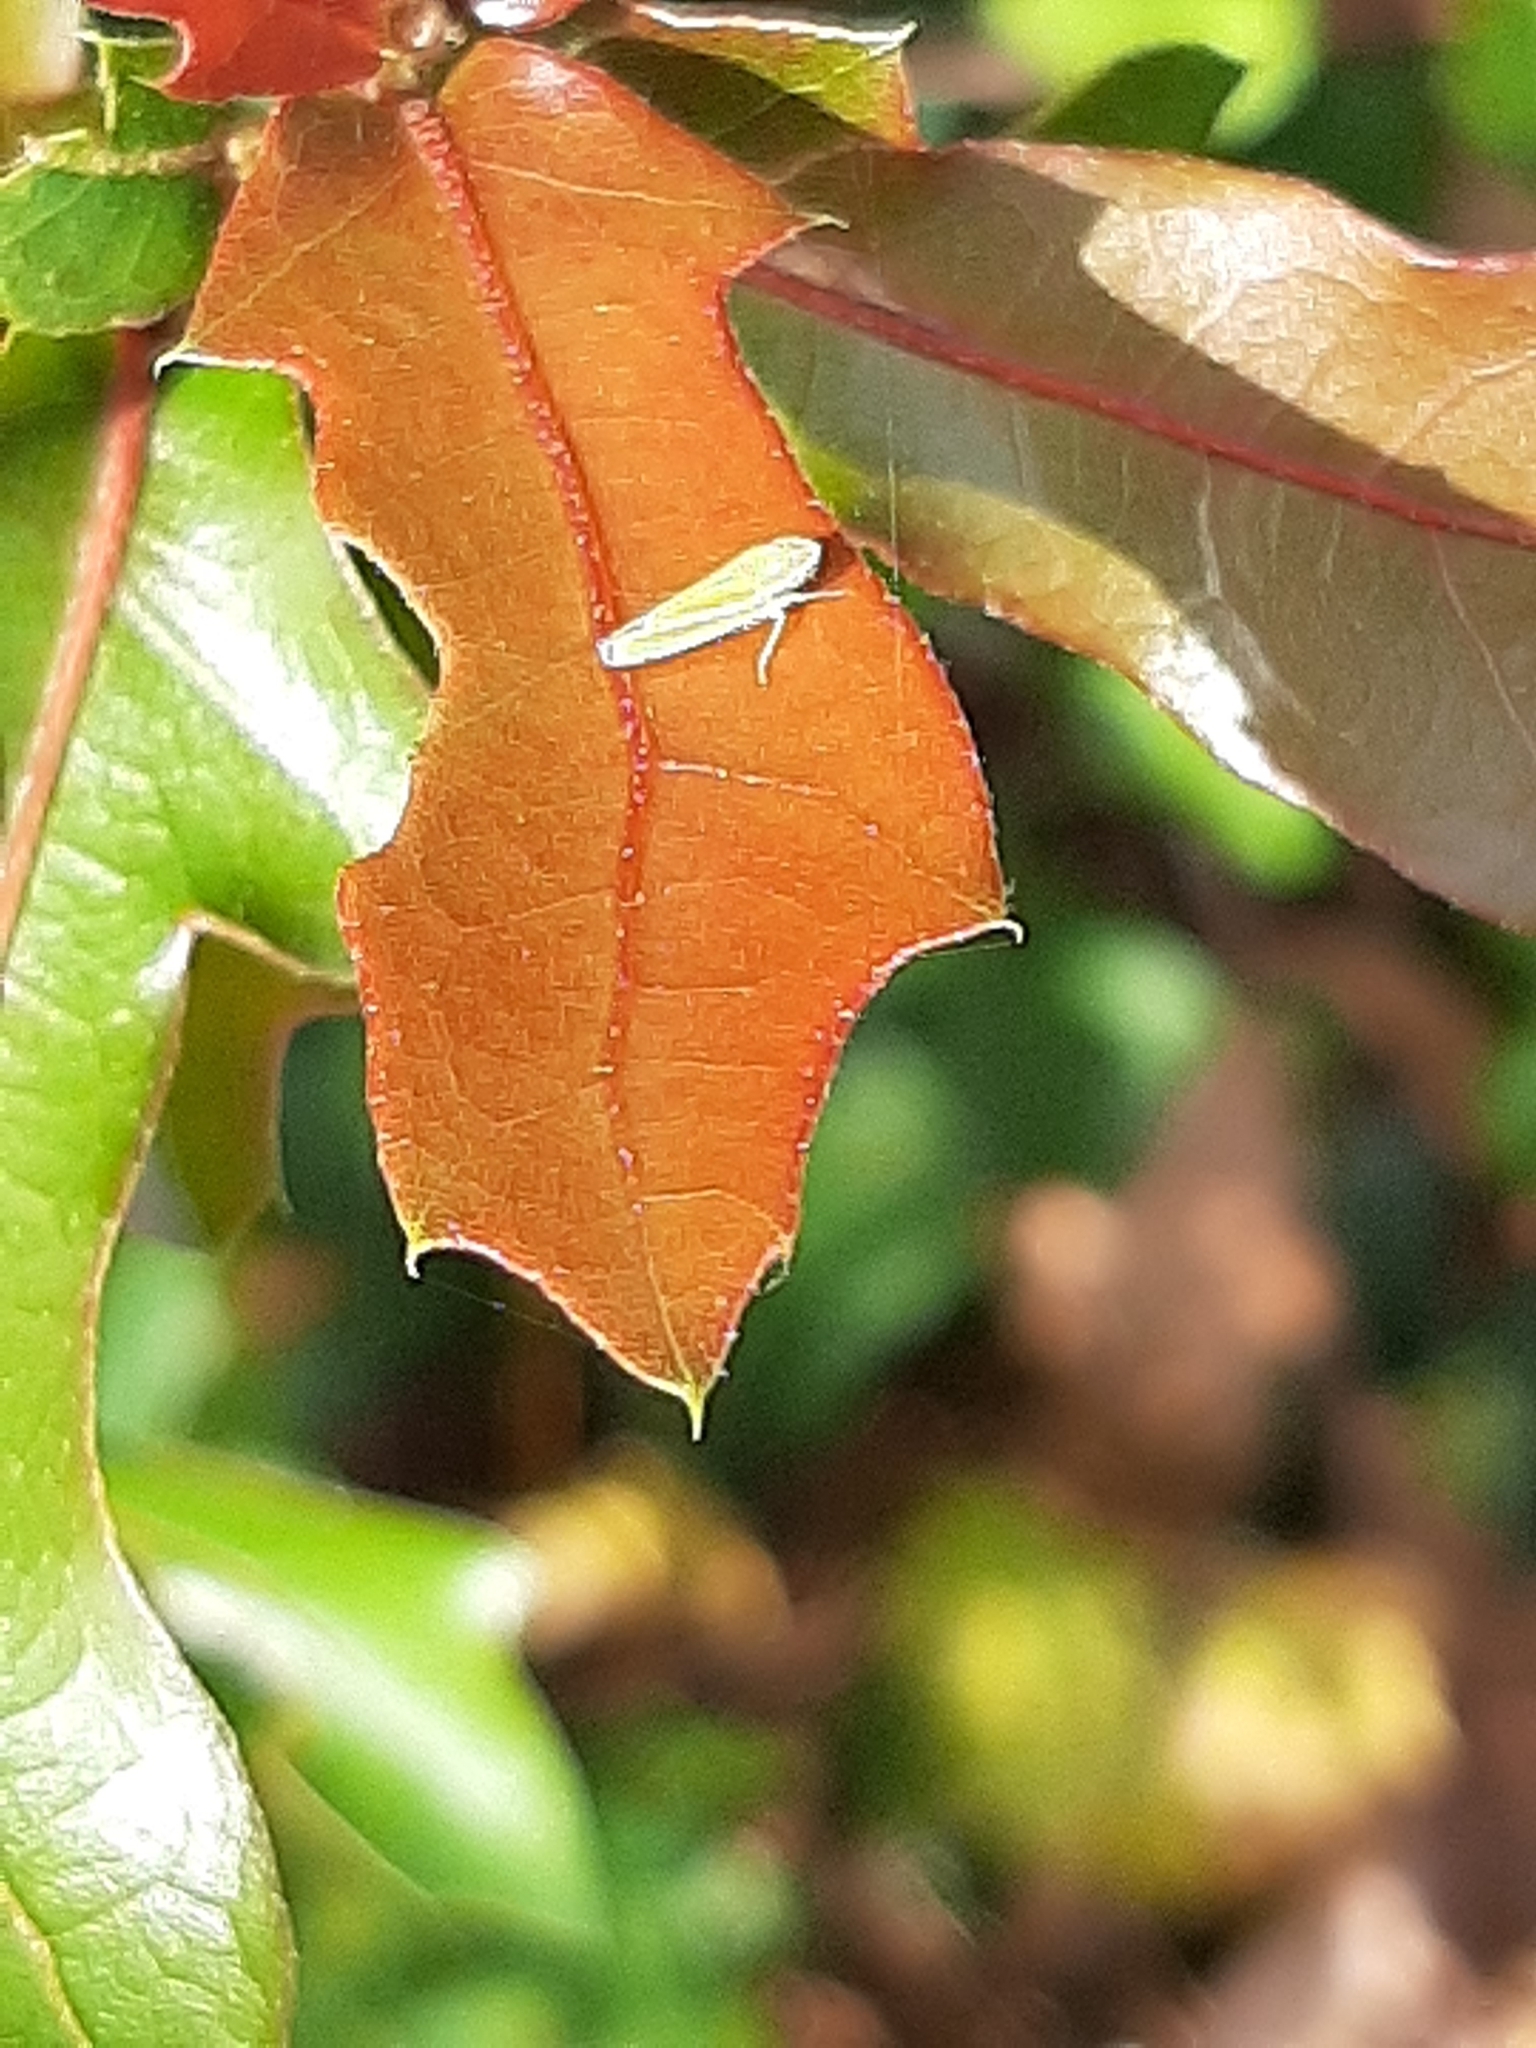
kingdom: Animalia
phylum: Arthropoda
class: Insecta
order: Hemiptera
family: Cicadellidae
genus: Graphocephala
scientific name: Graphocephala versuta
